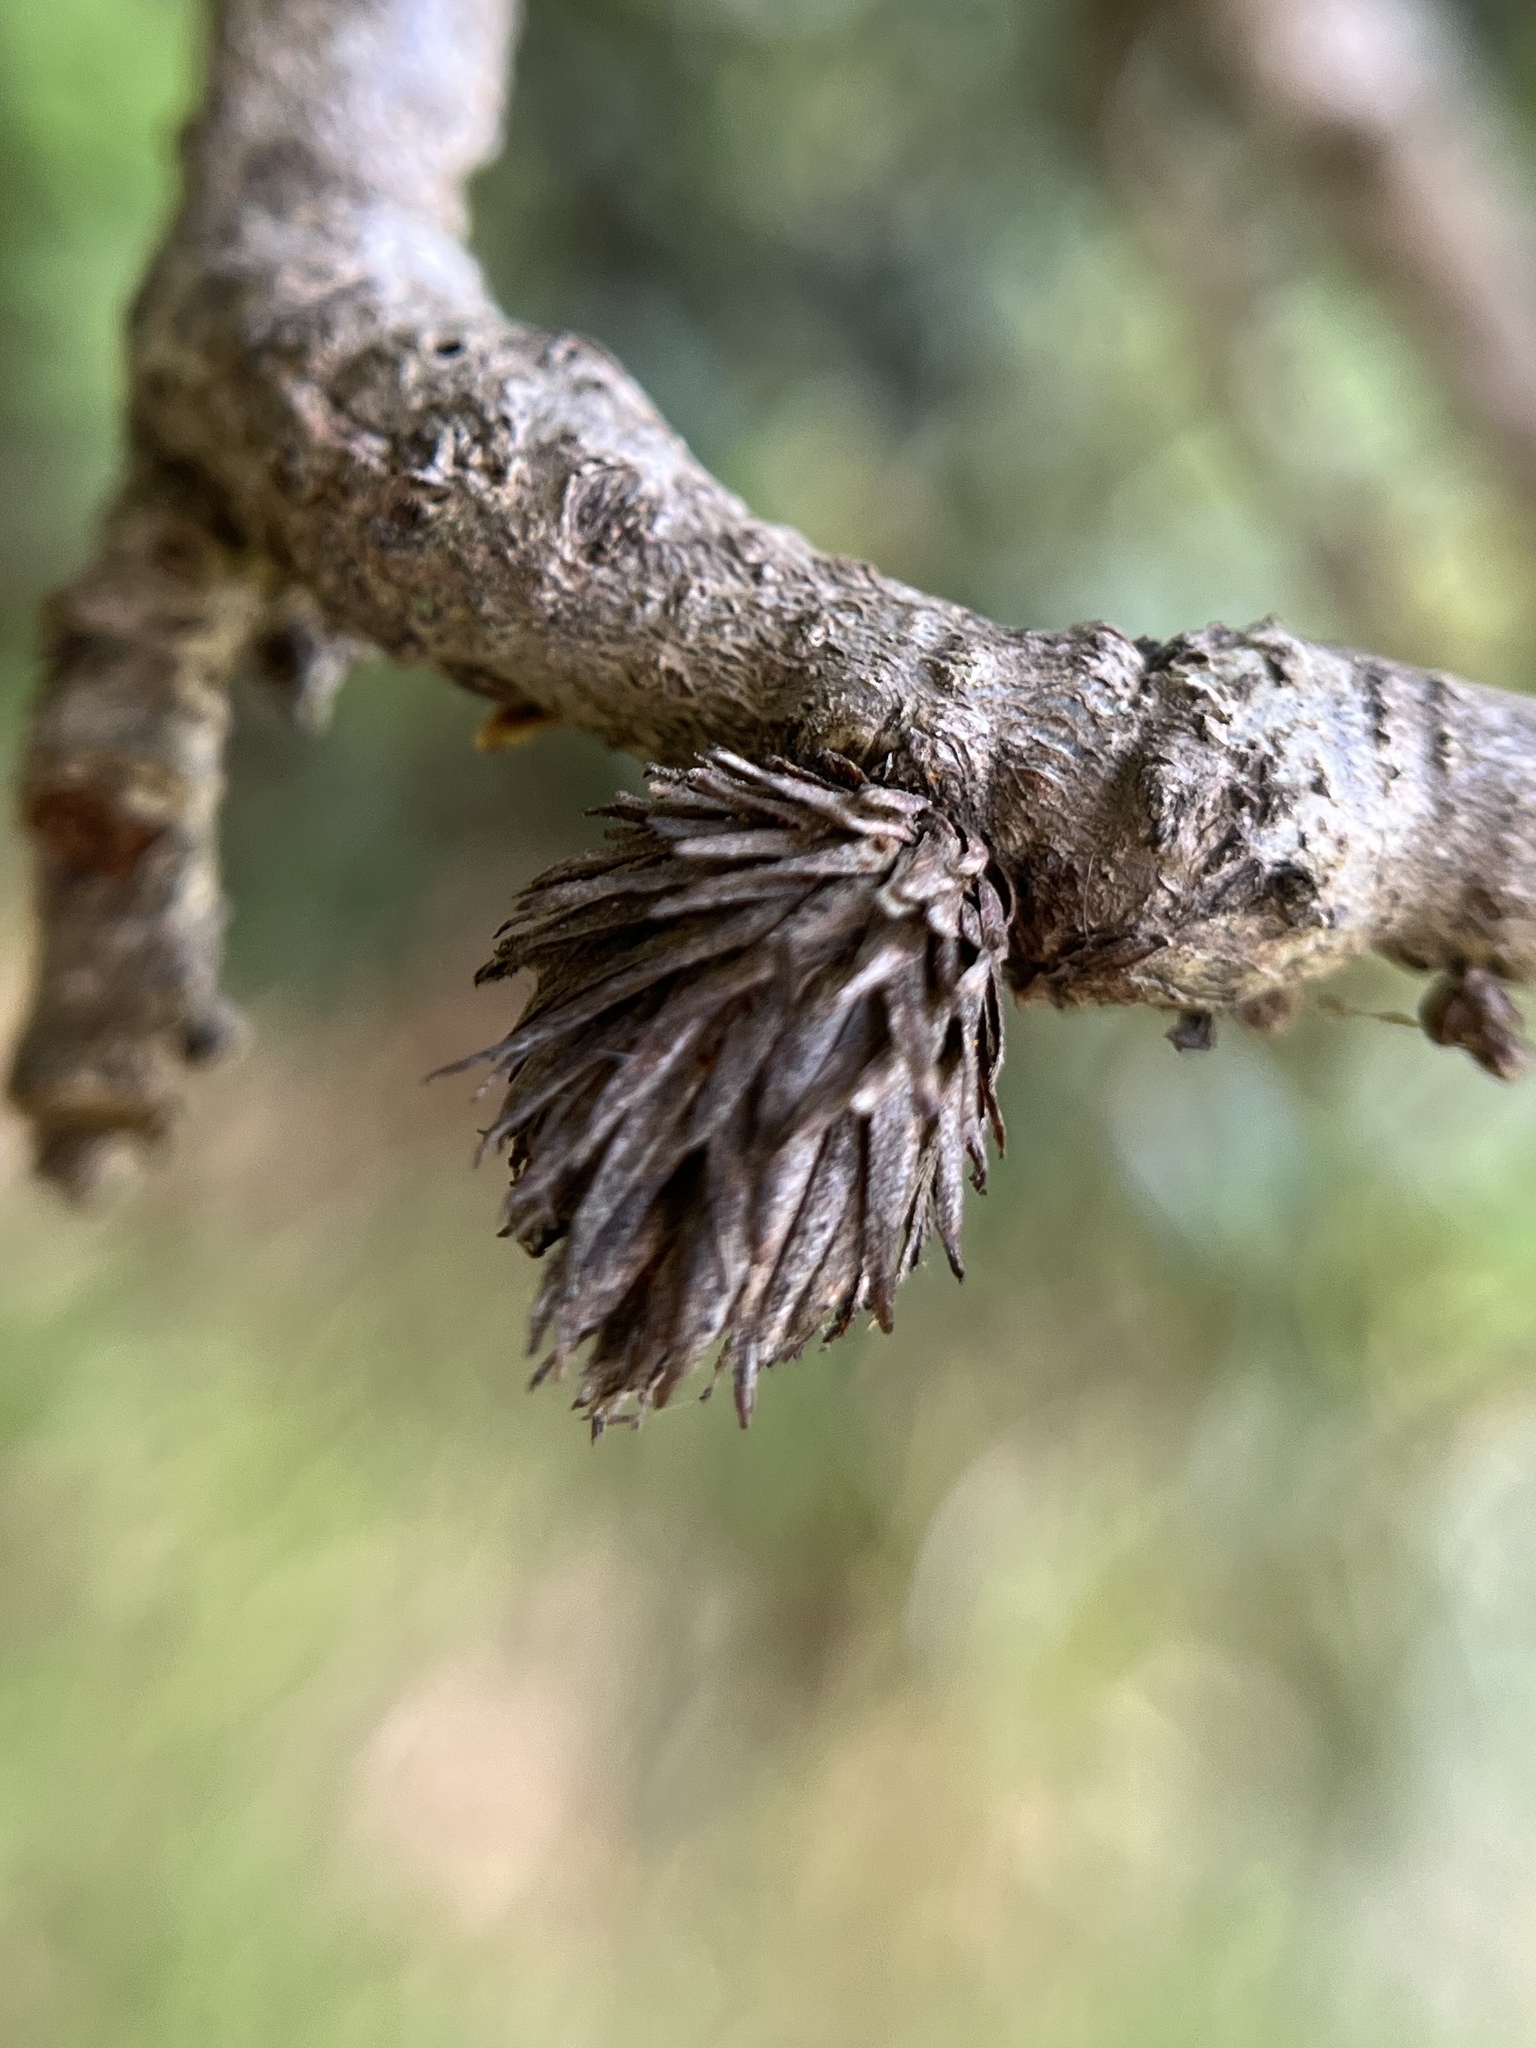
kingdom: Animalia
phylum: Arthropoda
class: Insecta
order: Hymenoptera
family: Cynipidae
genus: Andricus
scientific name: Andricus quercusfoliatus
